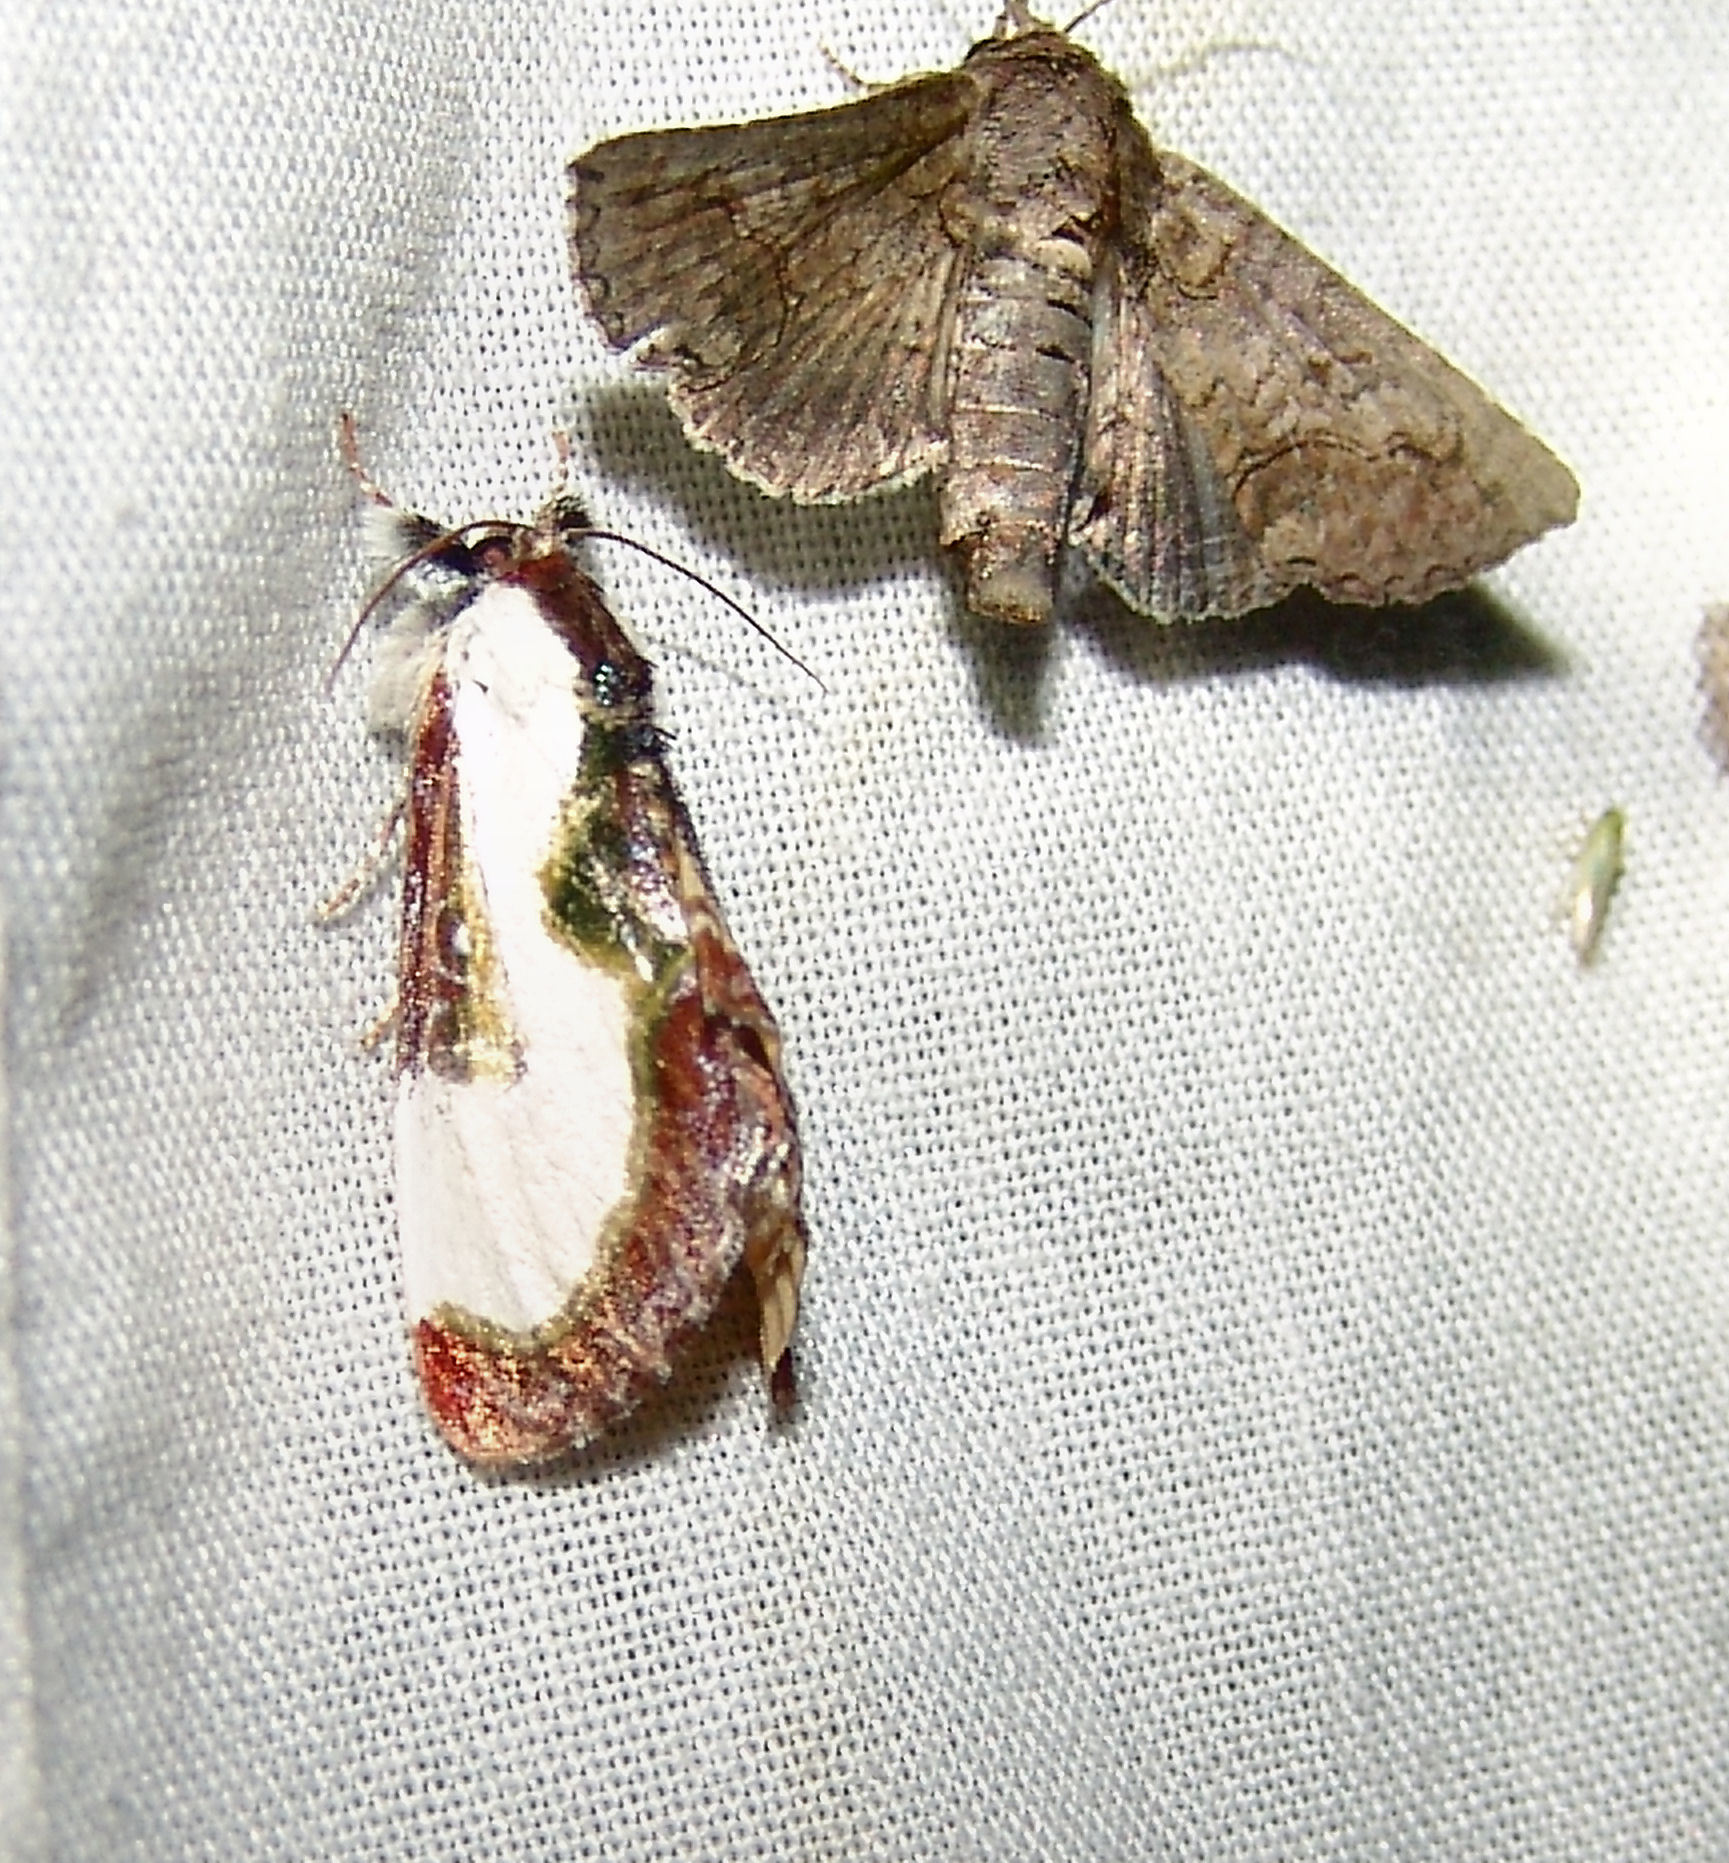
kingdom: Animalia
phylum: Arthropoda
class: Insecta
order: Lepidoptera
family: Noctuidae
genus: Eudryas
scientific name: Eudryas grata
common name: Beautiful wood-nymph
